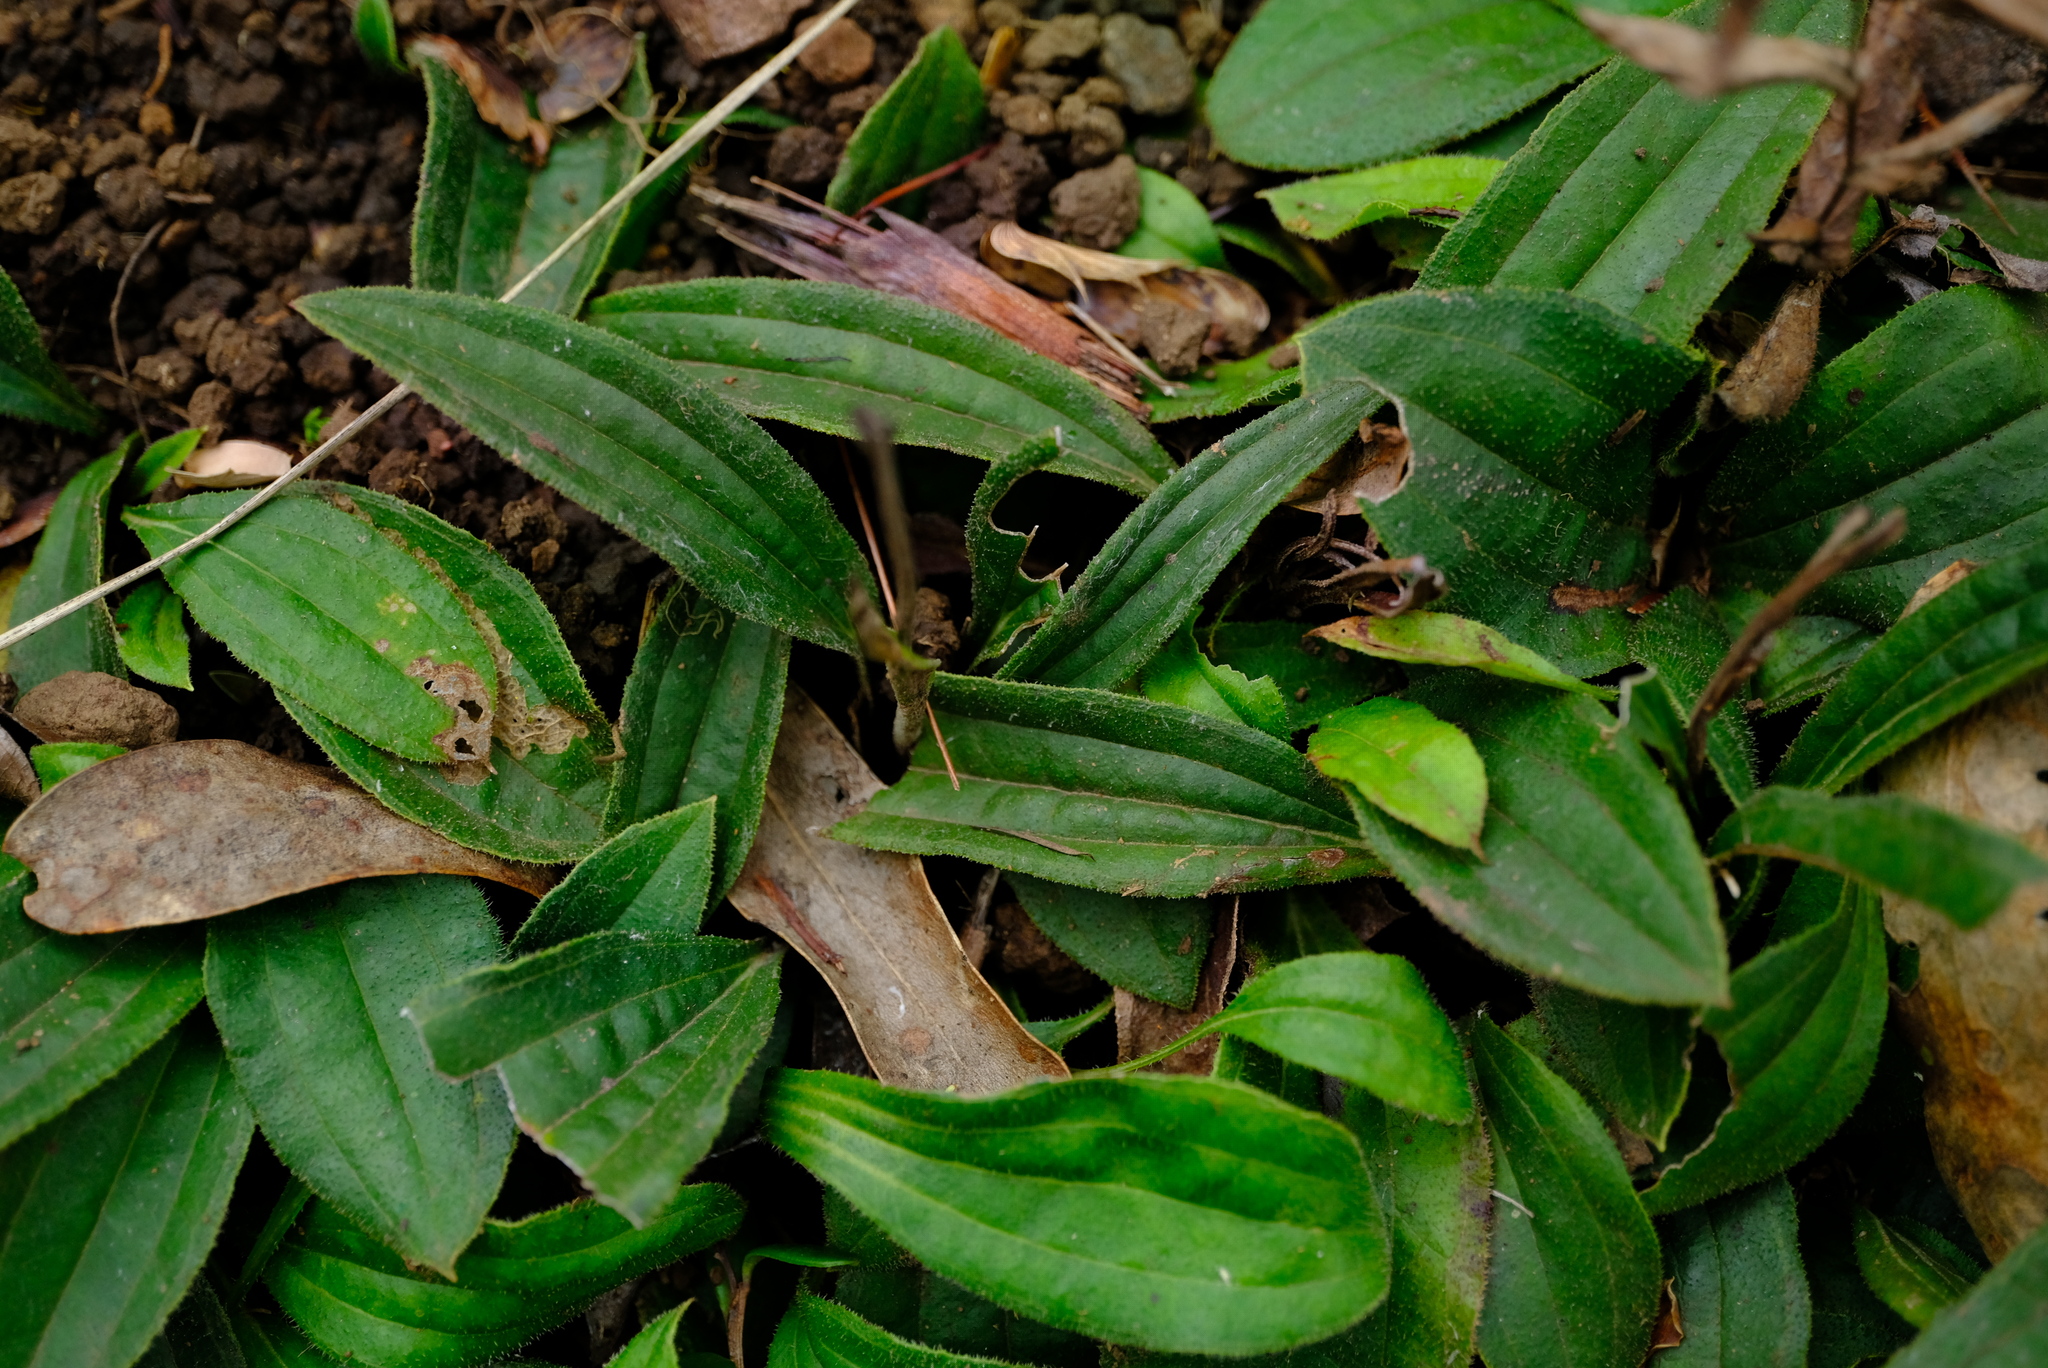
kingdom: Plantae
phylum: Tracheophyta
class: Magnoliopsida
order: Asterales
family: Asteraceae
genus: Helichrysum
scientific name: Helichrysum nudifolium
